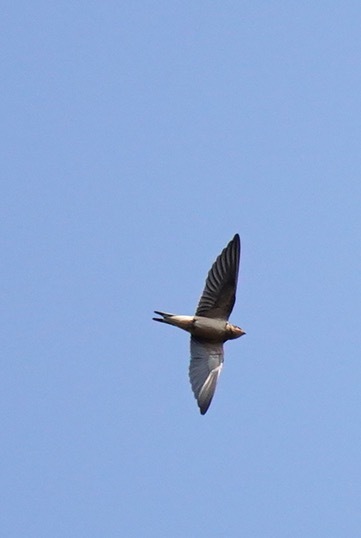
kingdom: Animalia
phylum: Chordata
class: Aves
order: Passeriformes
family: Hirundinidae
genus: Hirundo
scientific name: Hirundo rustica
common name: Barn swallow
